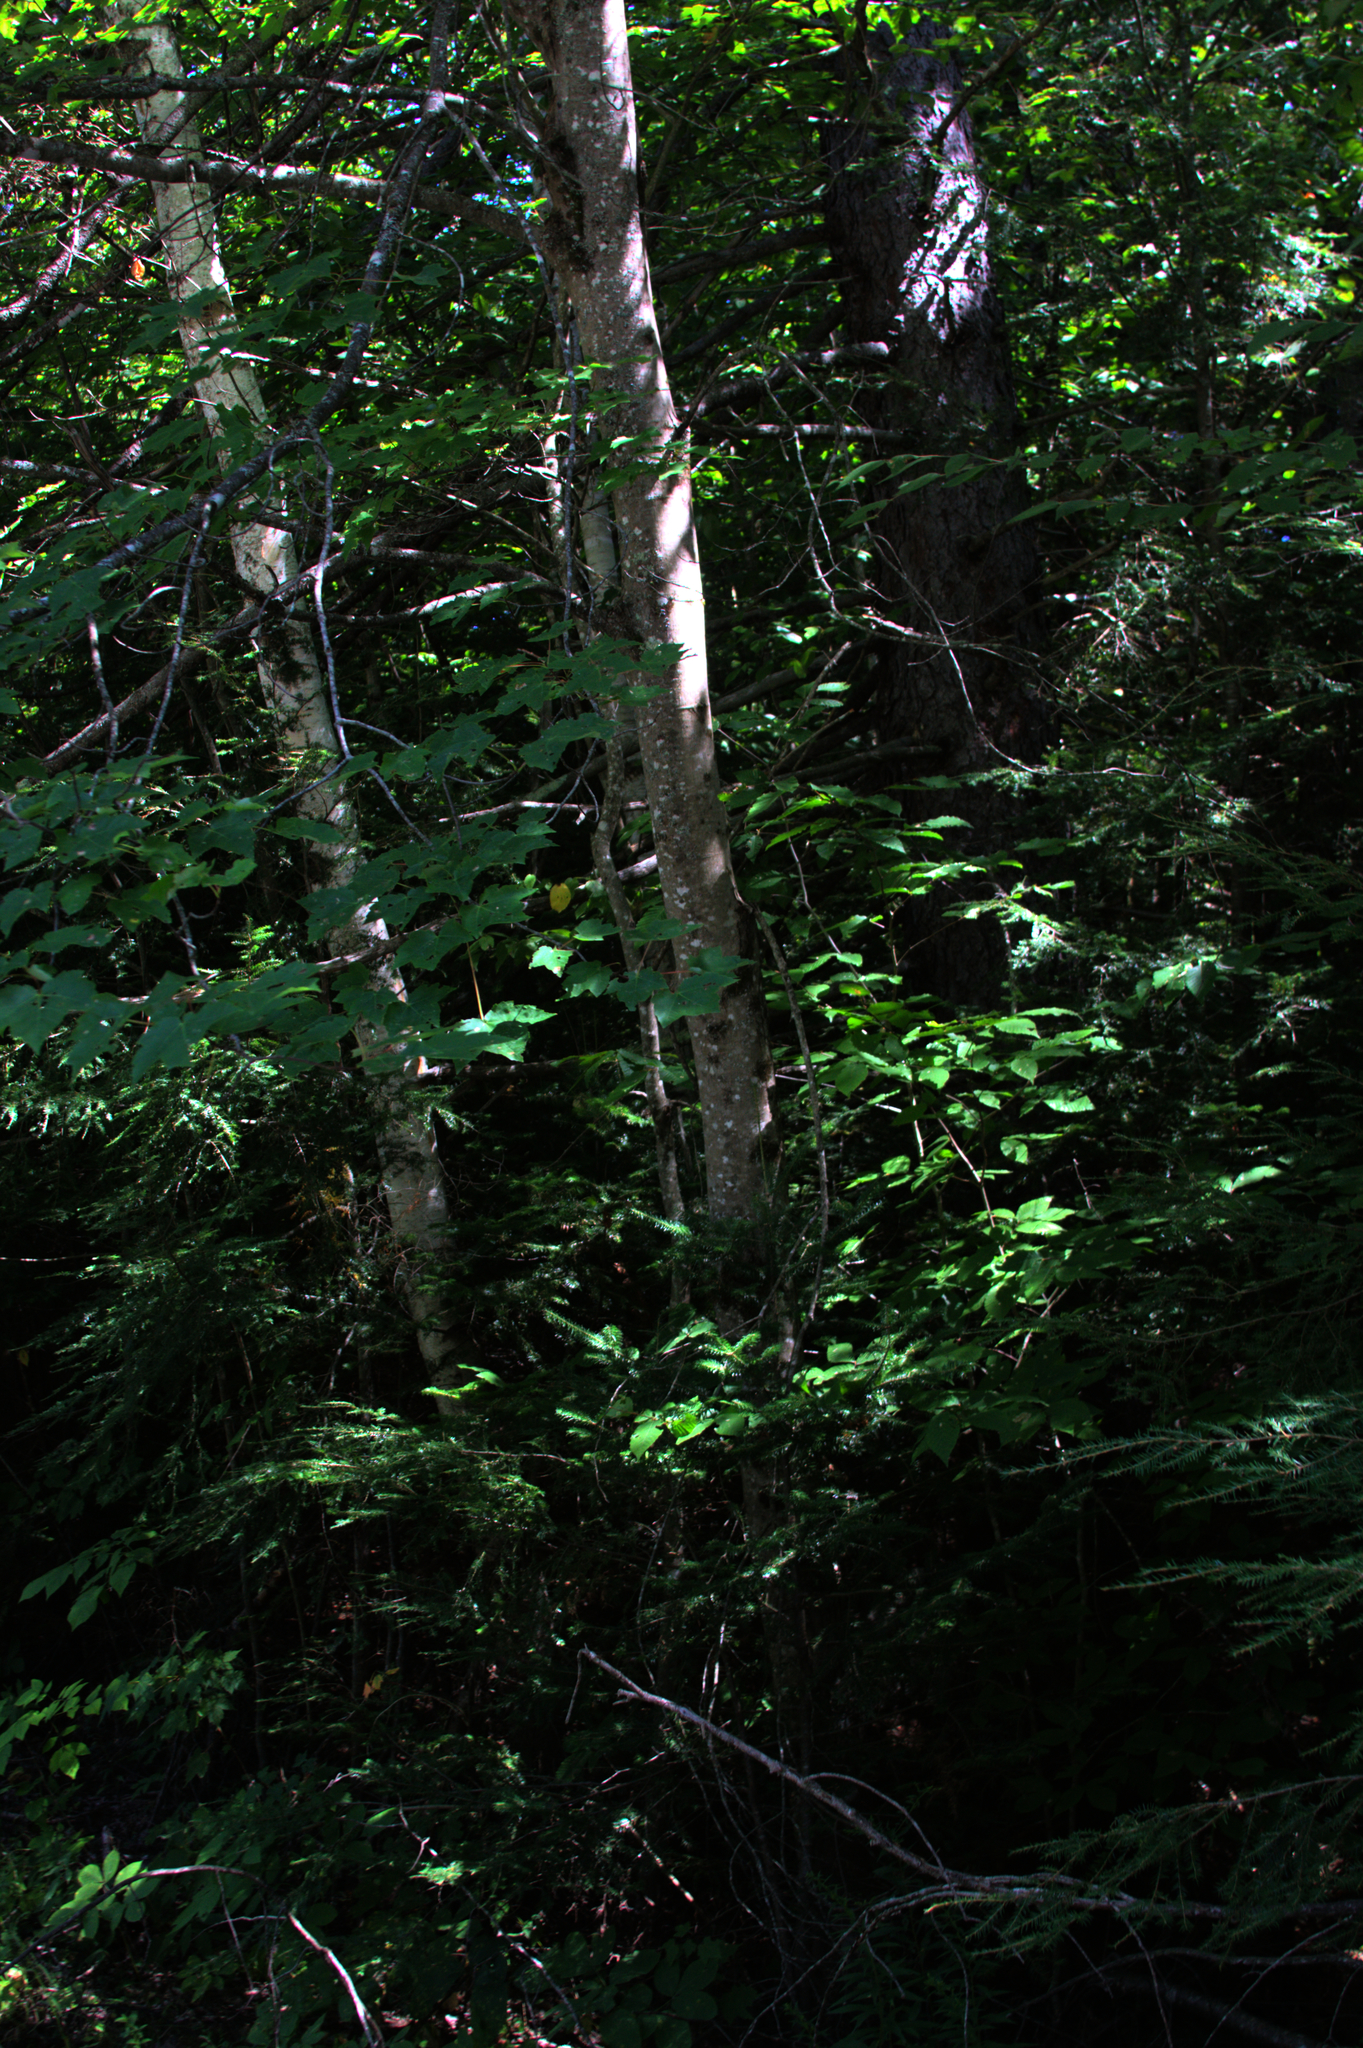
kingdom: Plantae
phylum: Tracheophyta
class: Magnoliopsida
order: Sapindales
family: Sapindaceae
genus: Acer
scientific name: Acer rubrum
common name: Red maple
